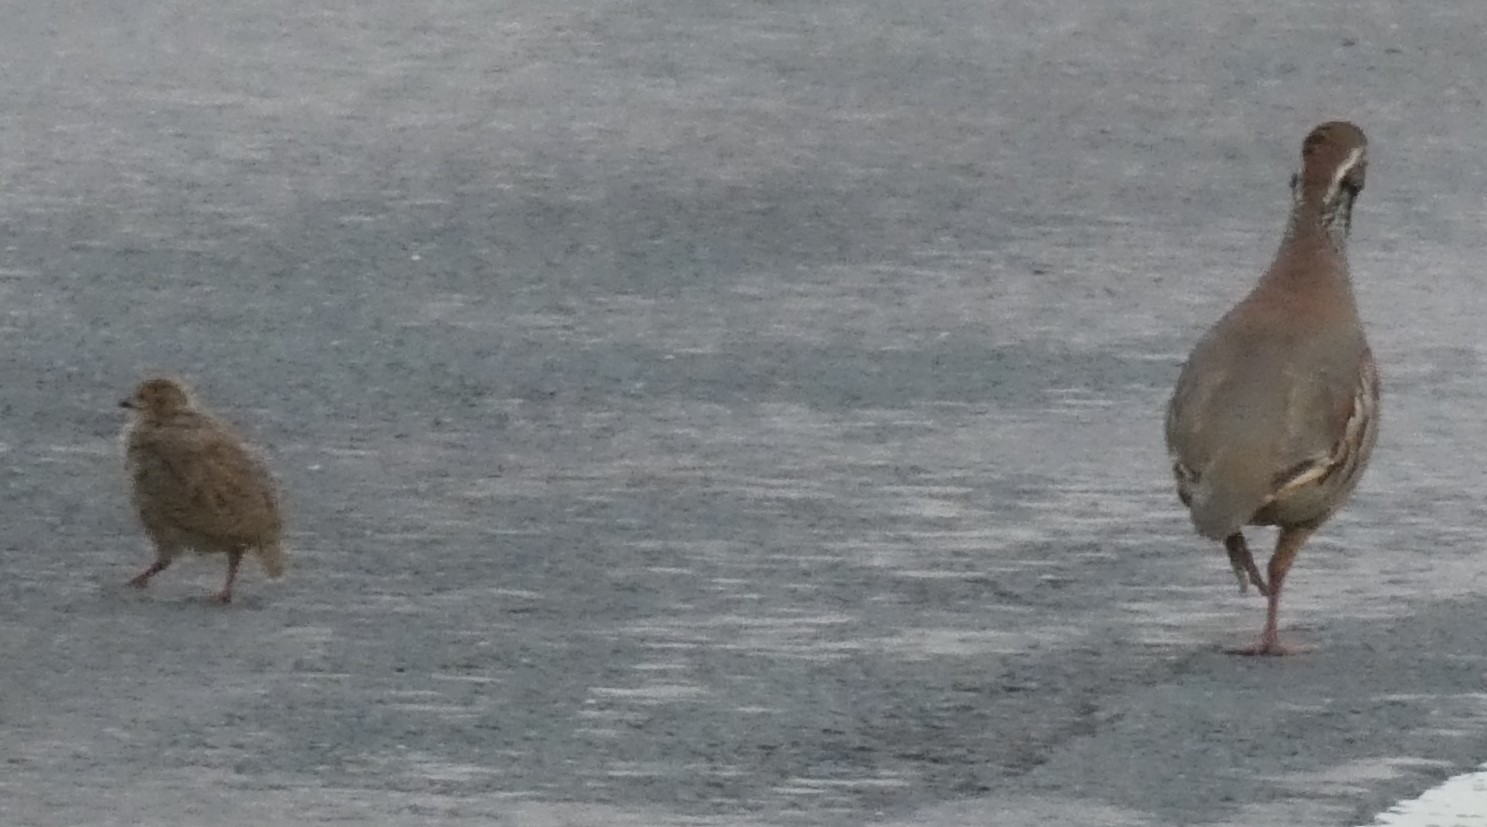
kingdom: Animalia
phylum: Chordata
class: Aves
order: Galliformes
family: Phasianidae
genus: Alectoris
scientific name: Alectoris rufa
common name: Red-legged partridge
